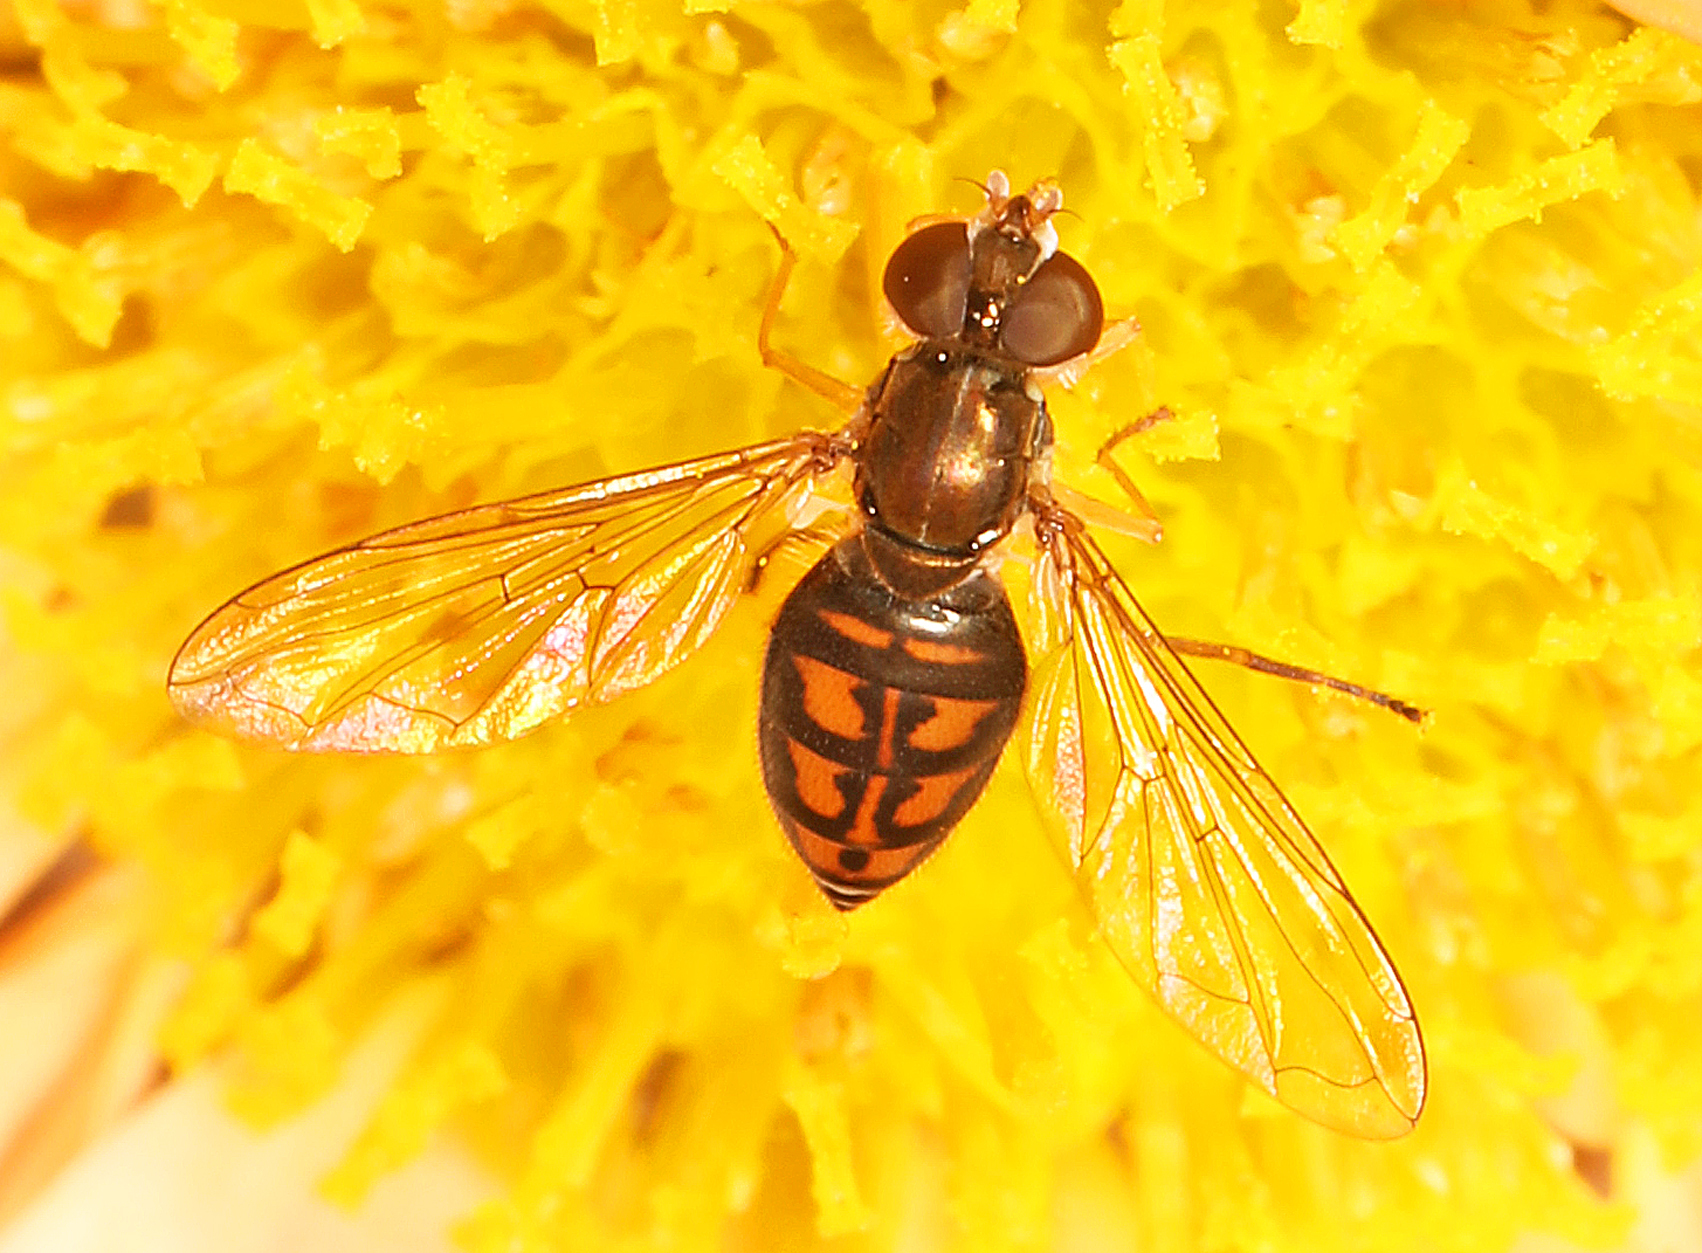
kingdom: Animalia
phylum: Arthropoda
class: Insecta
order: Diptera
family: Syrphidae
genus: Toxomerus
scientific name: Toxomerus marginatus
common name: Syrphid fly
